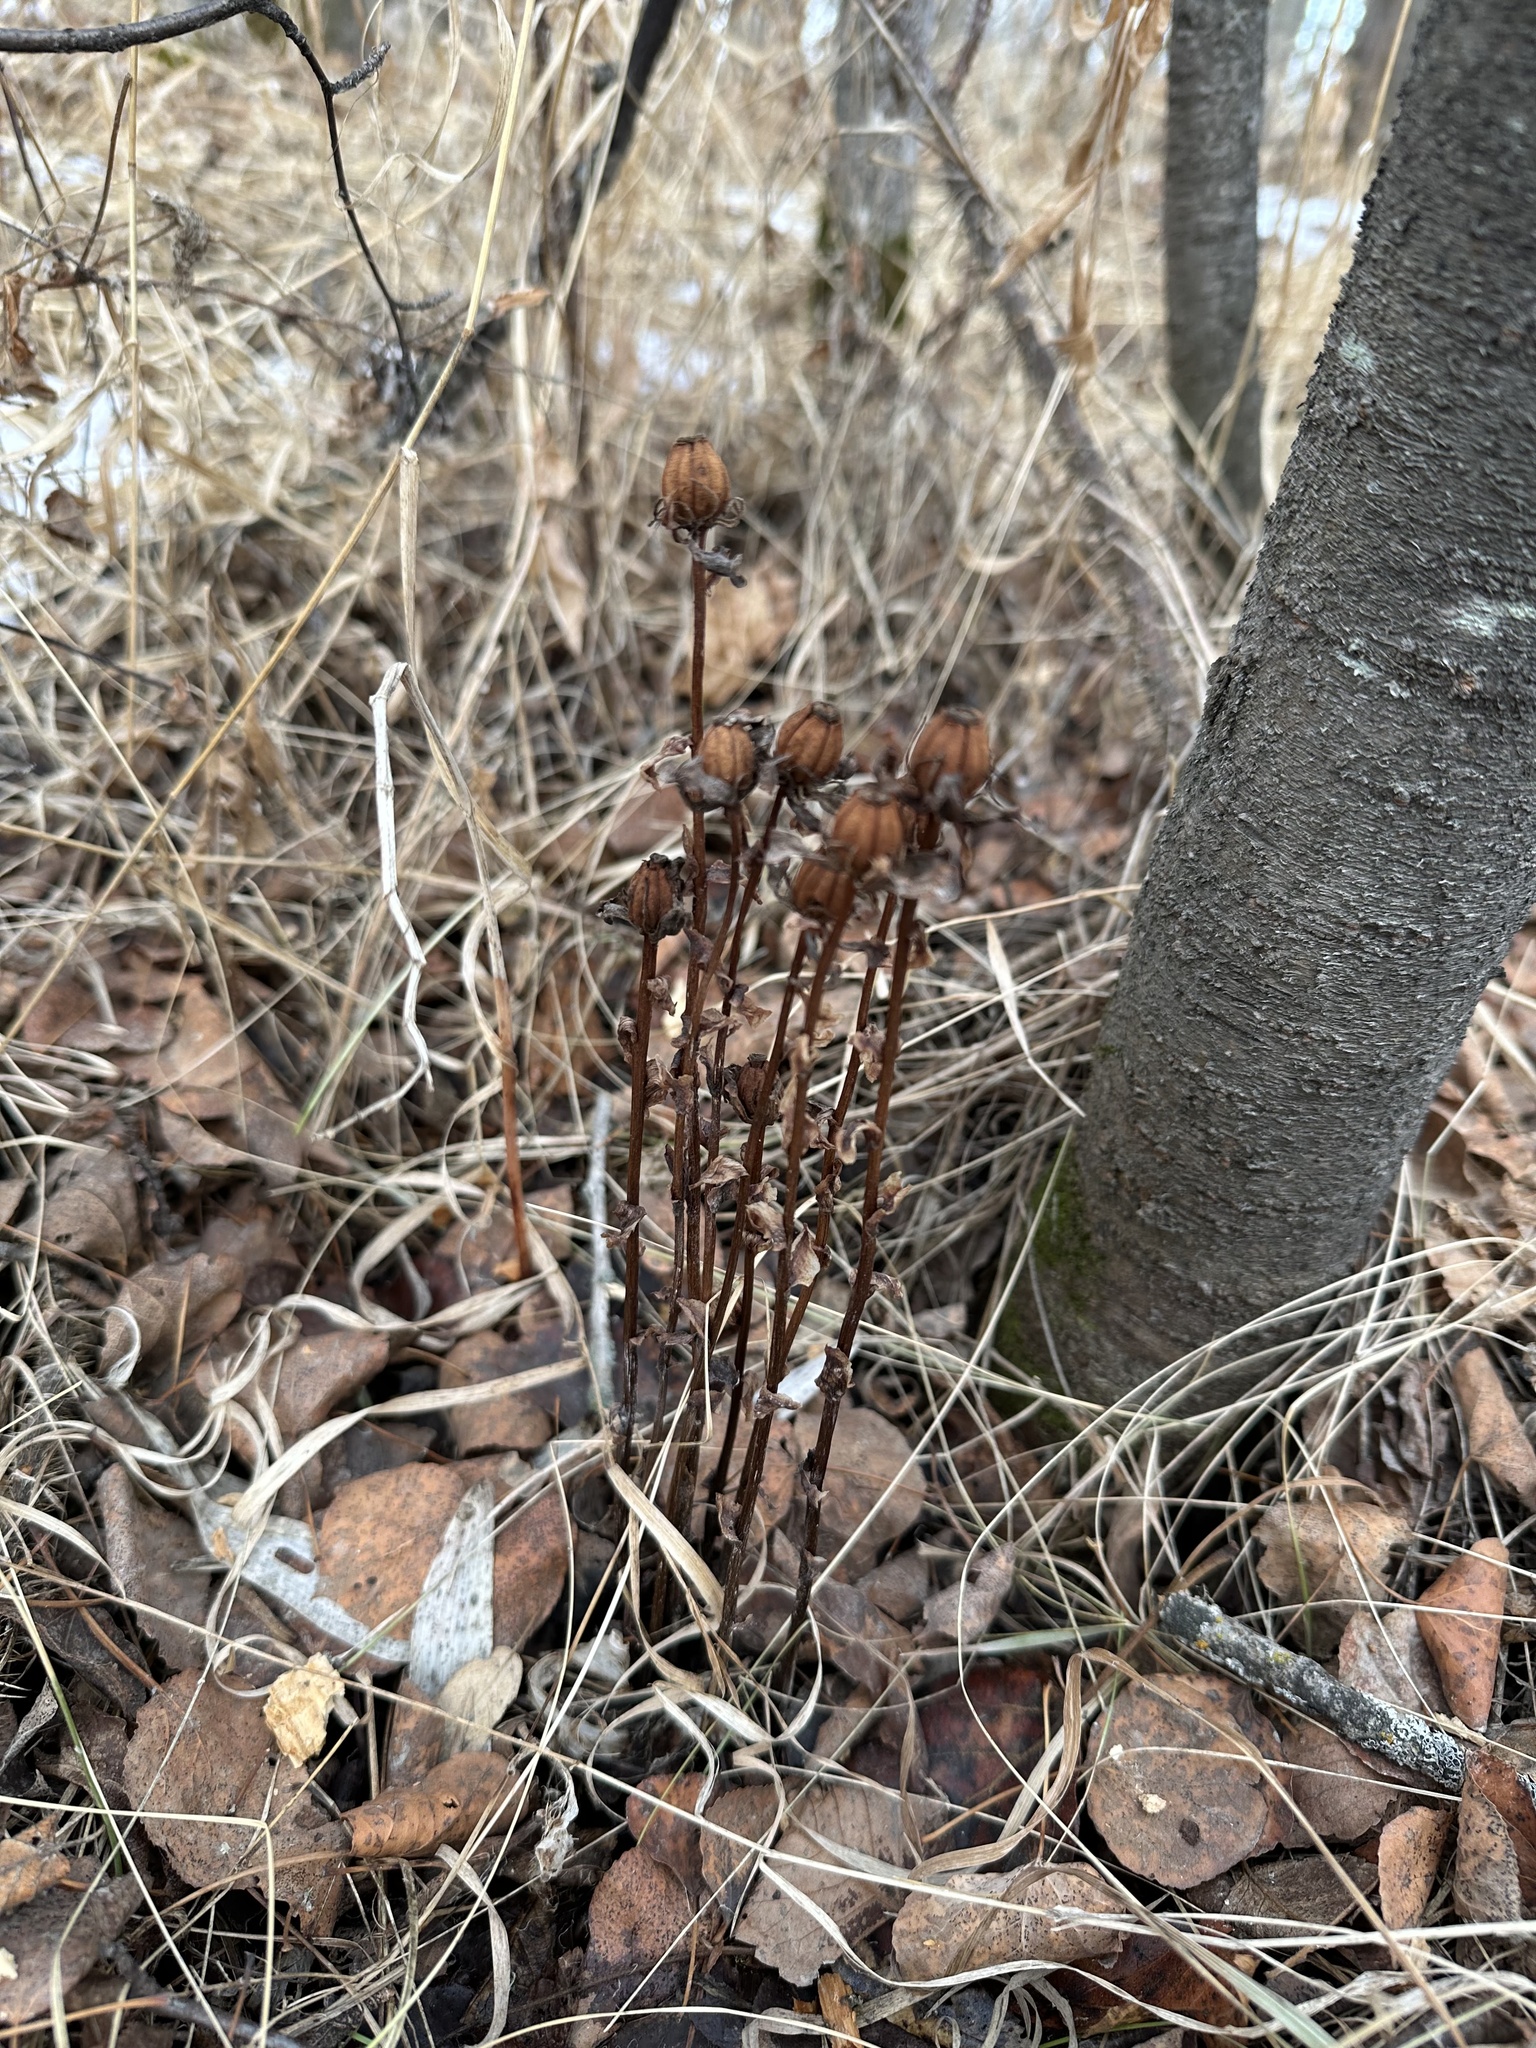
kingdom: Plantae
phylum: Tracheophyta
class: Magnoliopsida
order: Ericales
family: Ericaceae
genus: Monotropa
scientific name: Monotropa uniflora
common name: Convulsion root
